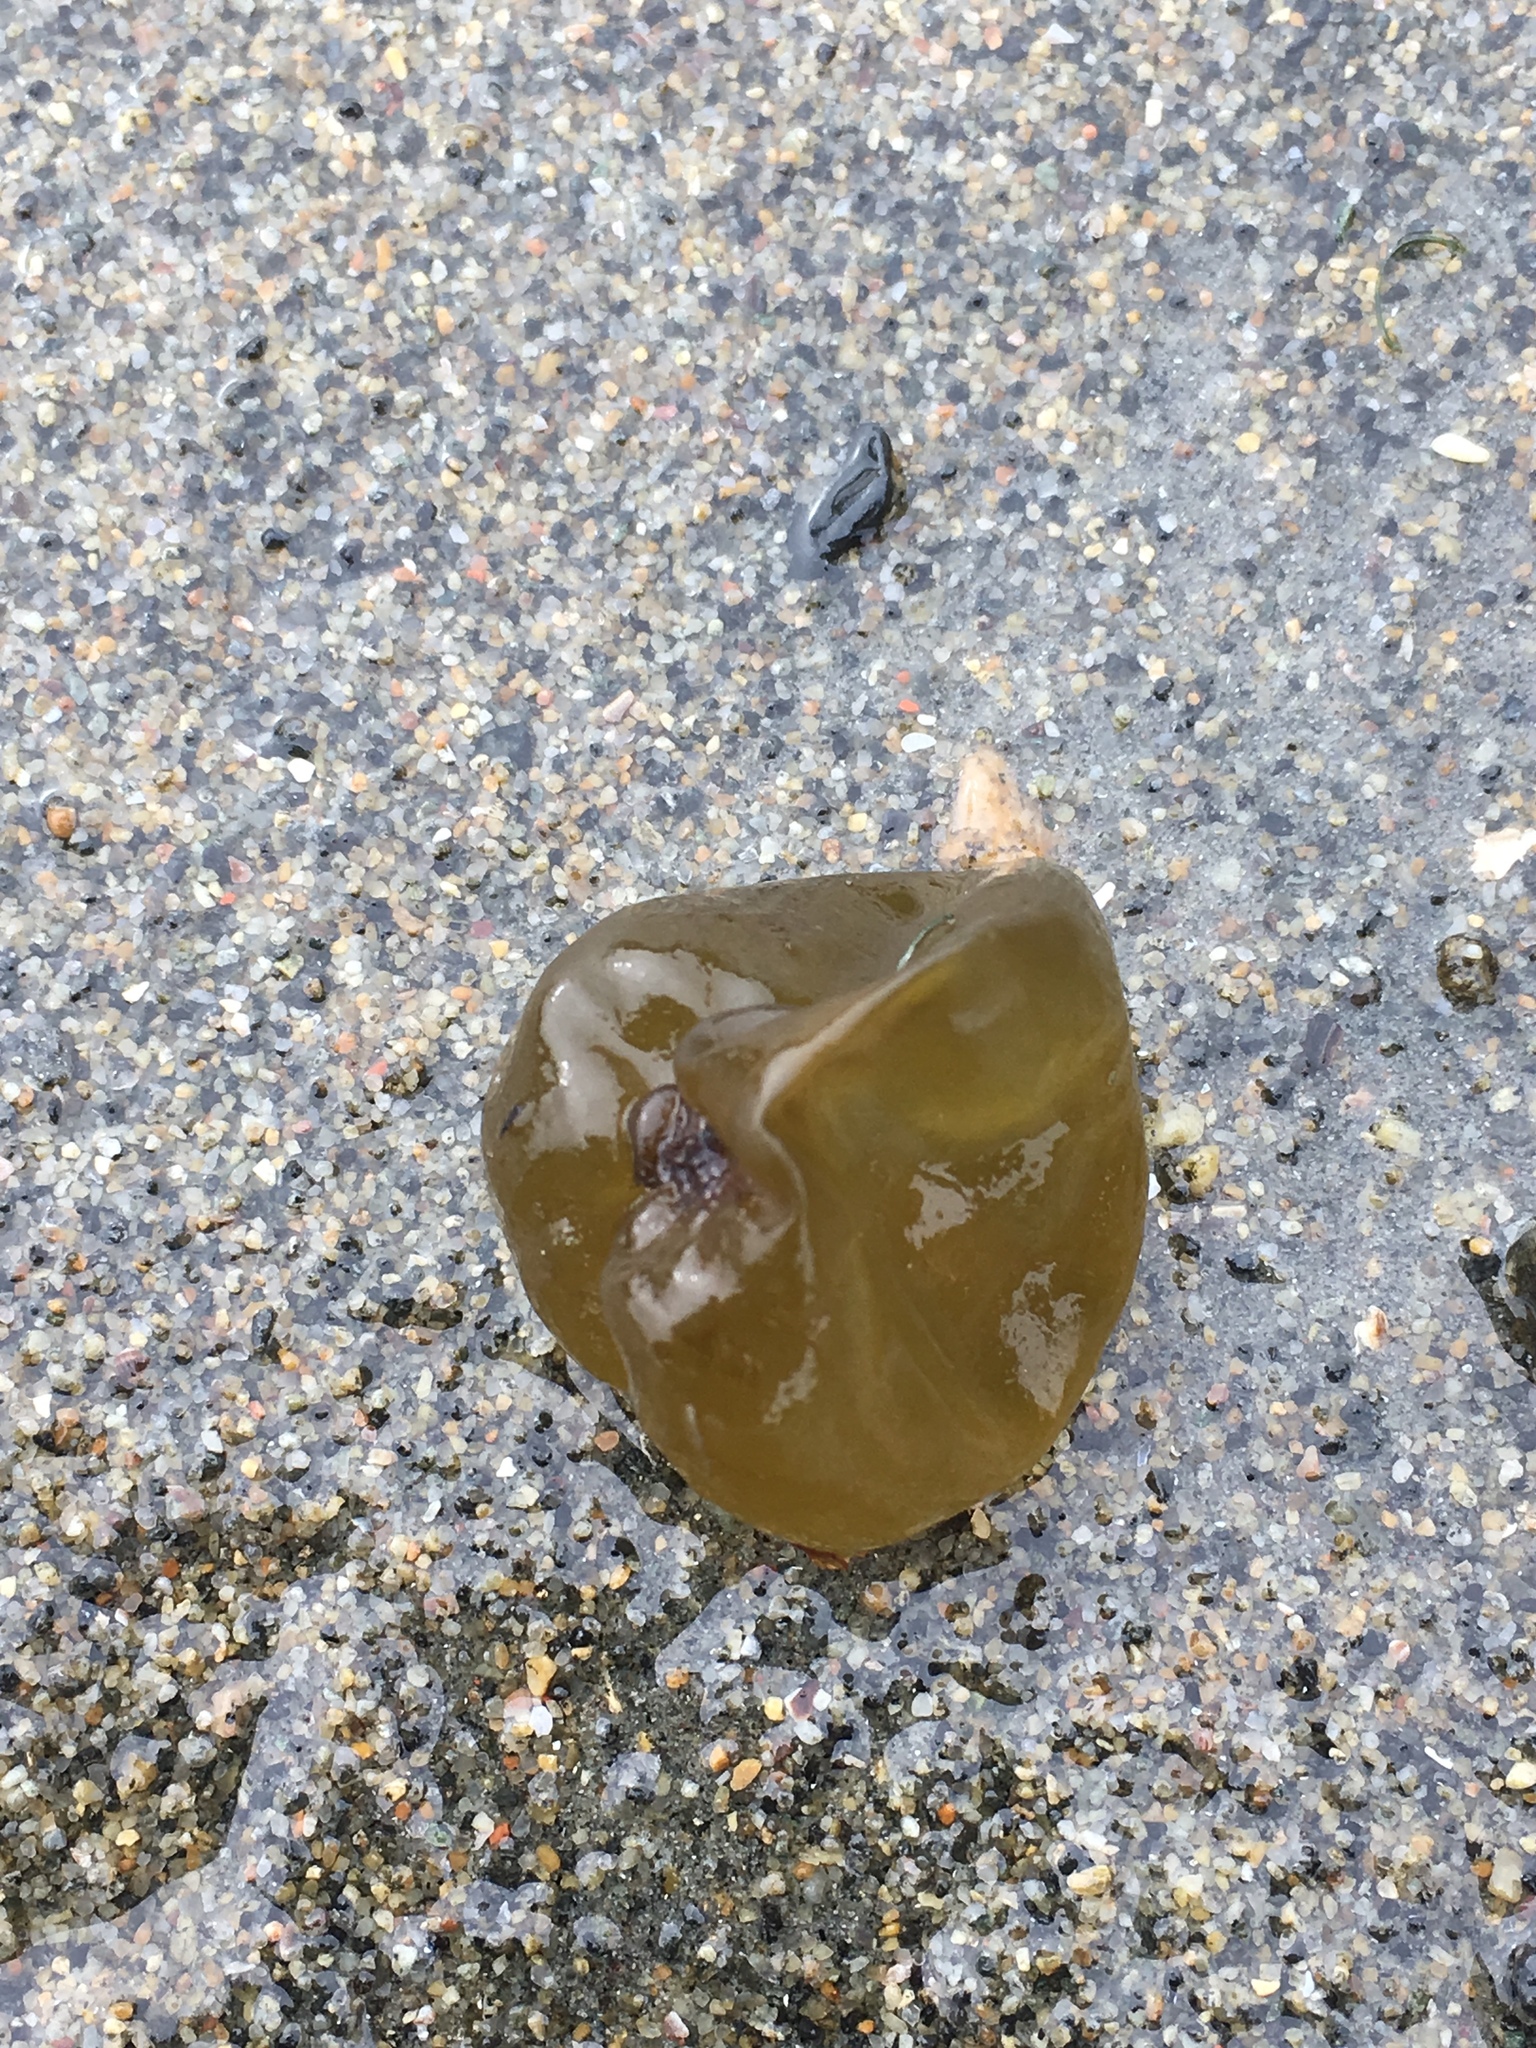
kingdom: Chromista
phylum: Ochrophyta
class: Phaeophyceae
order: Scytosiphonales
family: Scytosiphonaceae
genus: Colpomenia
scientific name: Colpomenia peregrina
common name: Oyster thief
